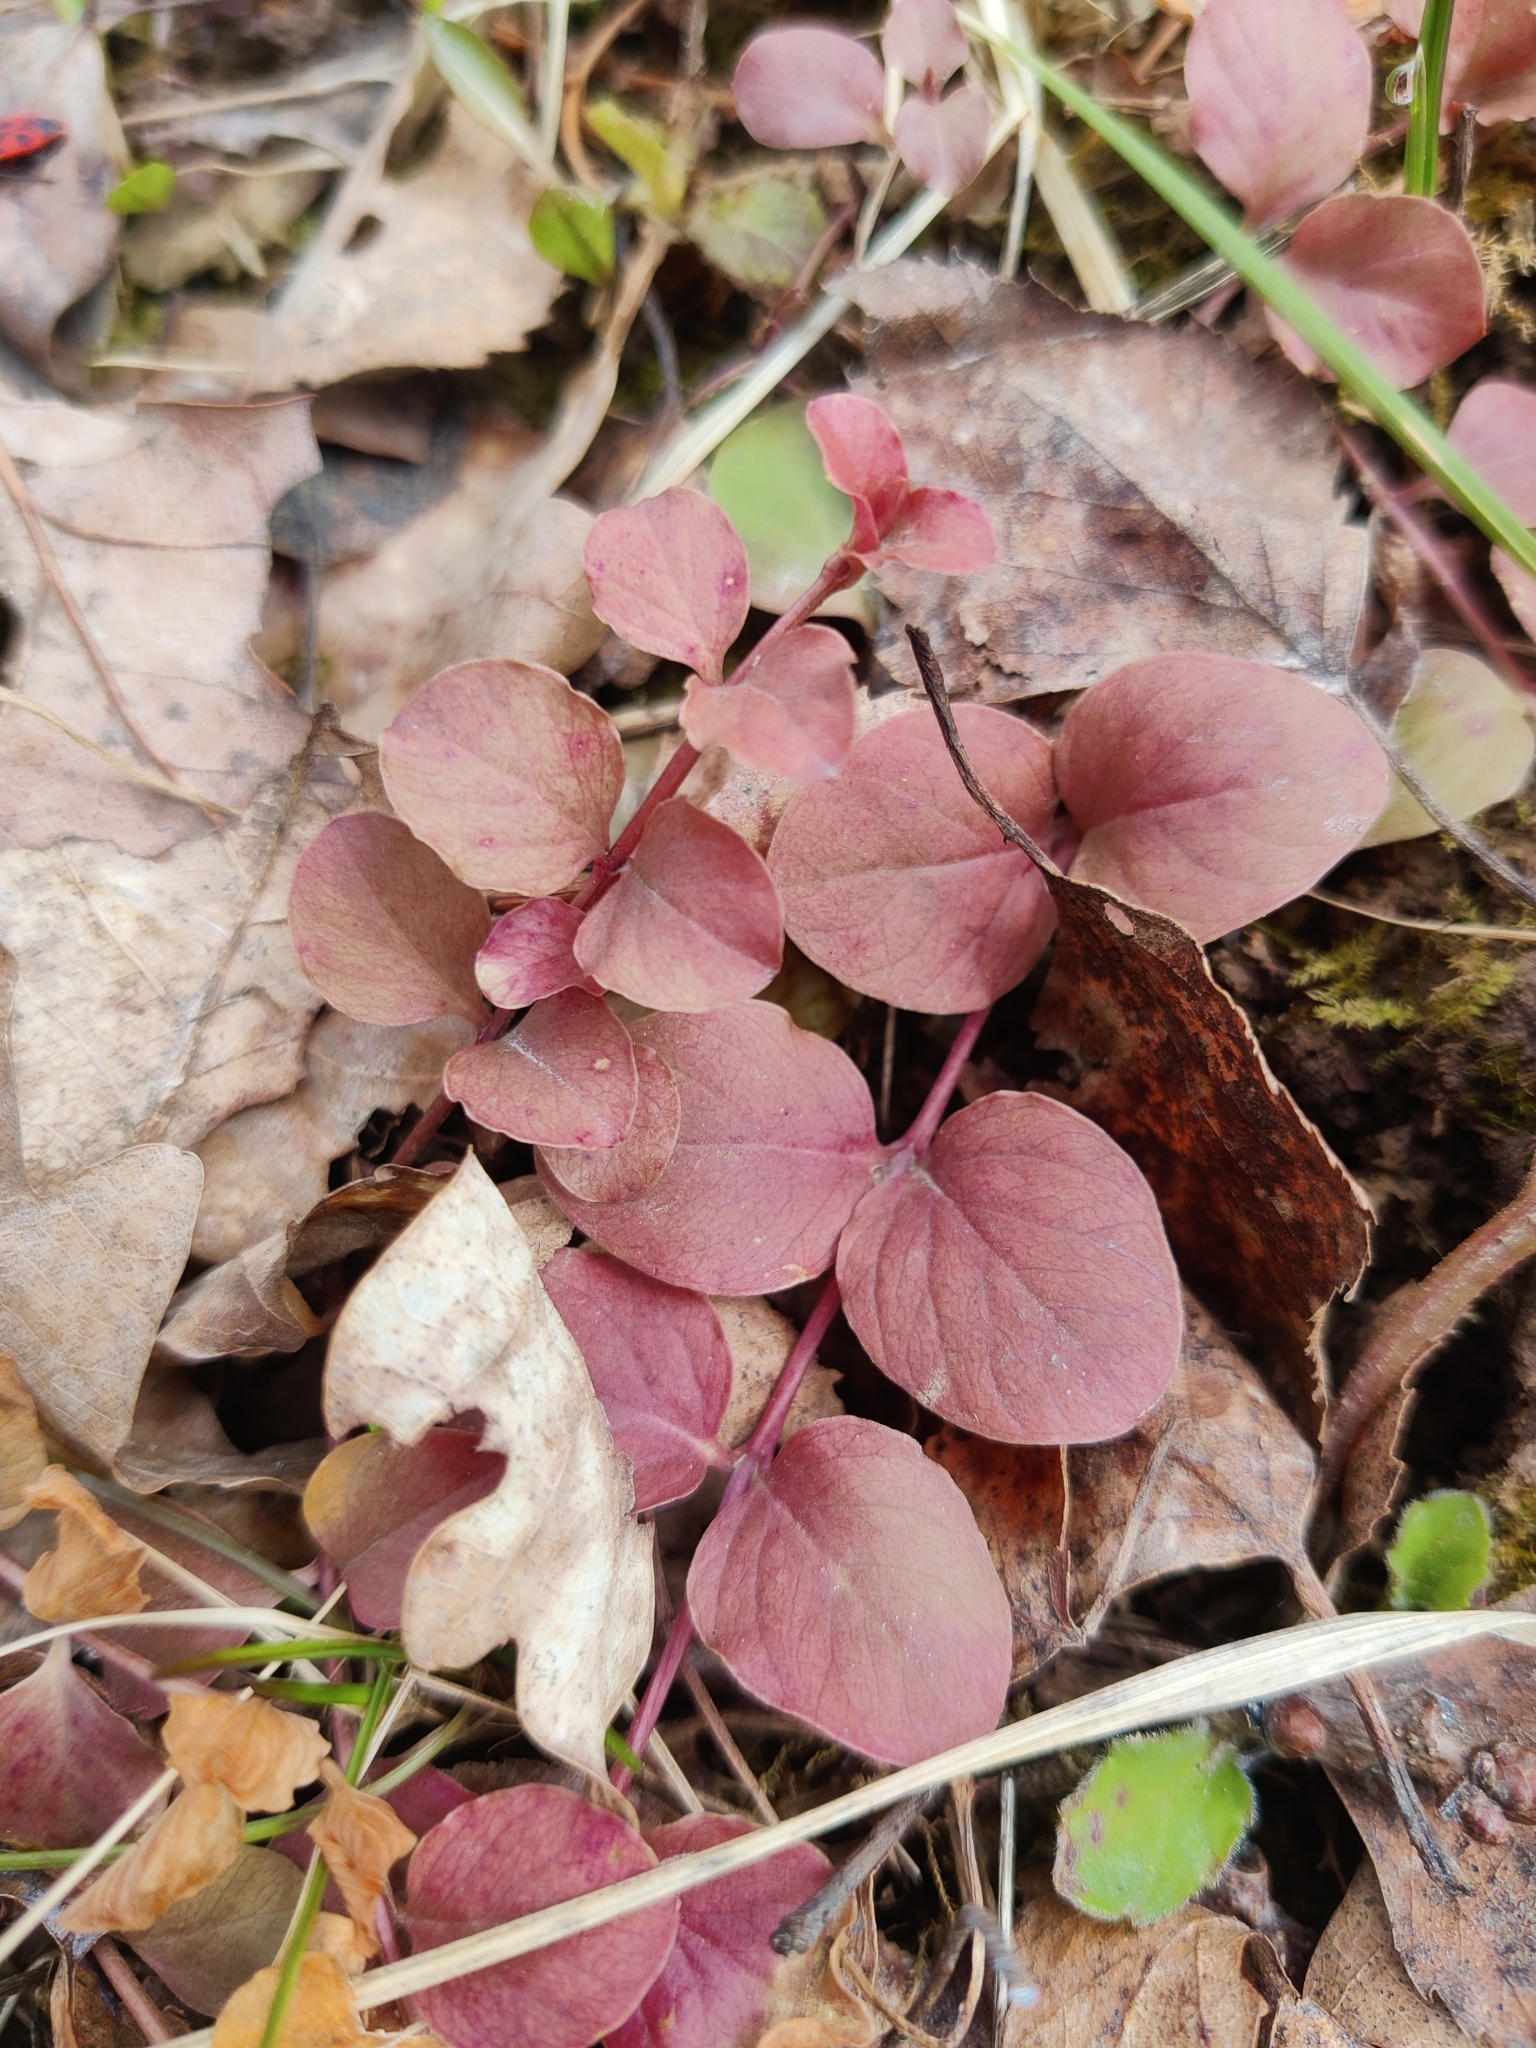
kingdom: Plantae
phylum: Tracheophyta
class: Magnoliopsida
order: Ericales
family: Primulaceae
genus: Lysimachia
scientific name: Lysimachia nummularia
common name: Moneywort
